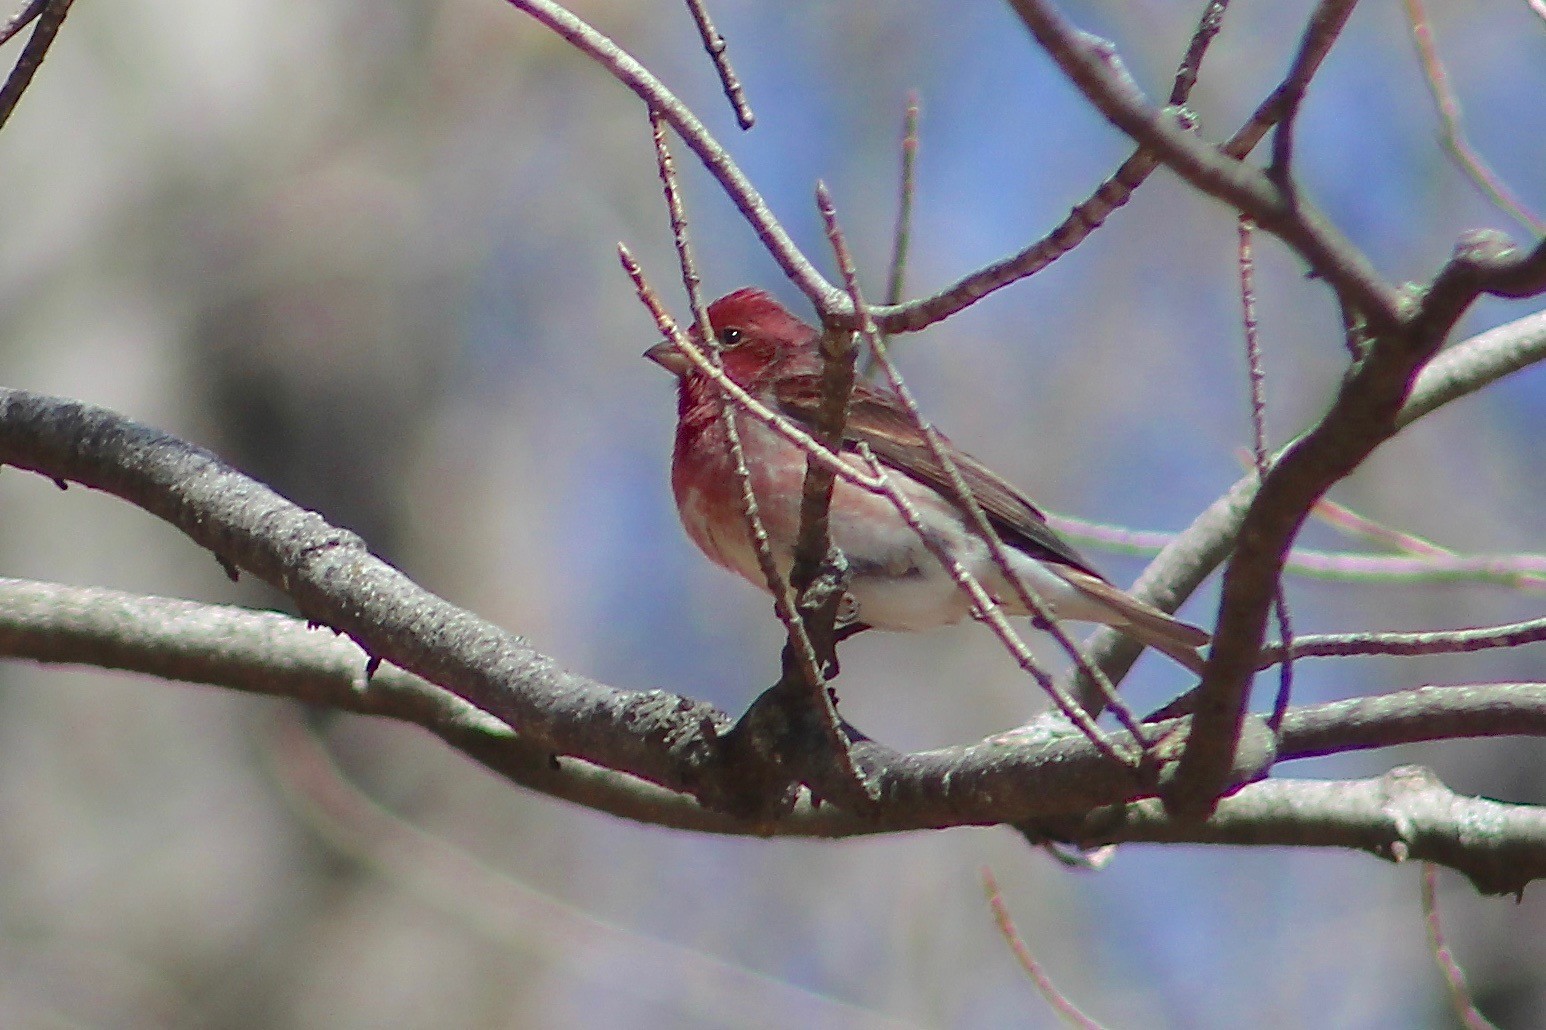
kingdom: Animalia
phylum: Chordata
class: Aves
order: Passeriformes
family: Fringillidae
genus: Haemorhous
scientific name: Haemorhous purpureus
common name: Purple finch
